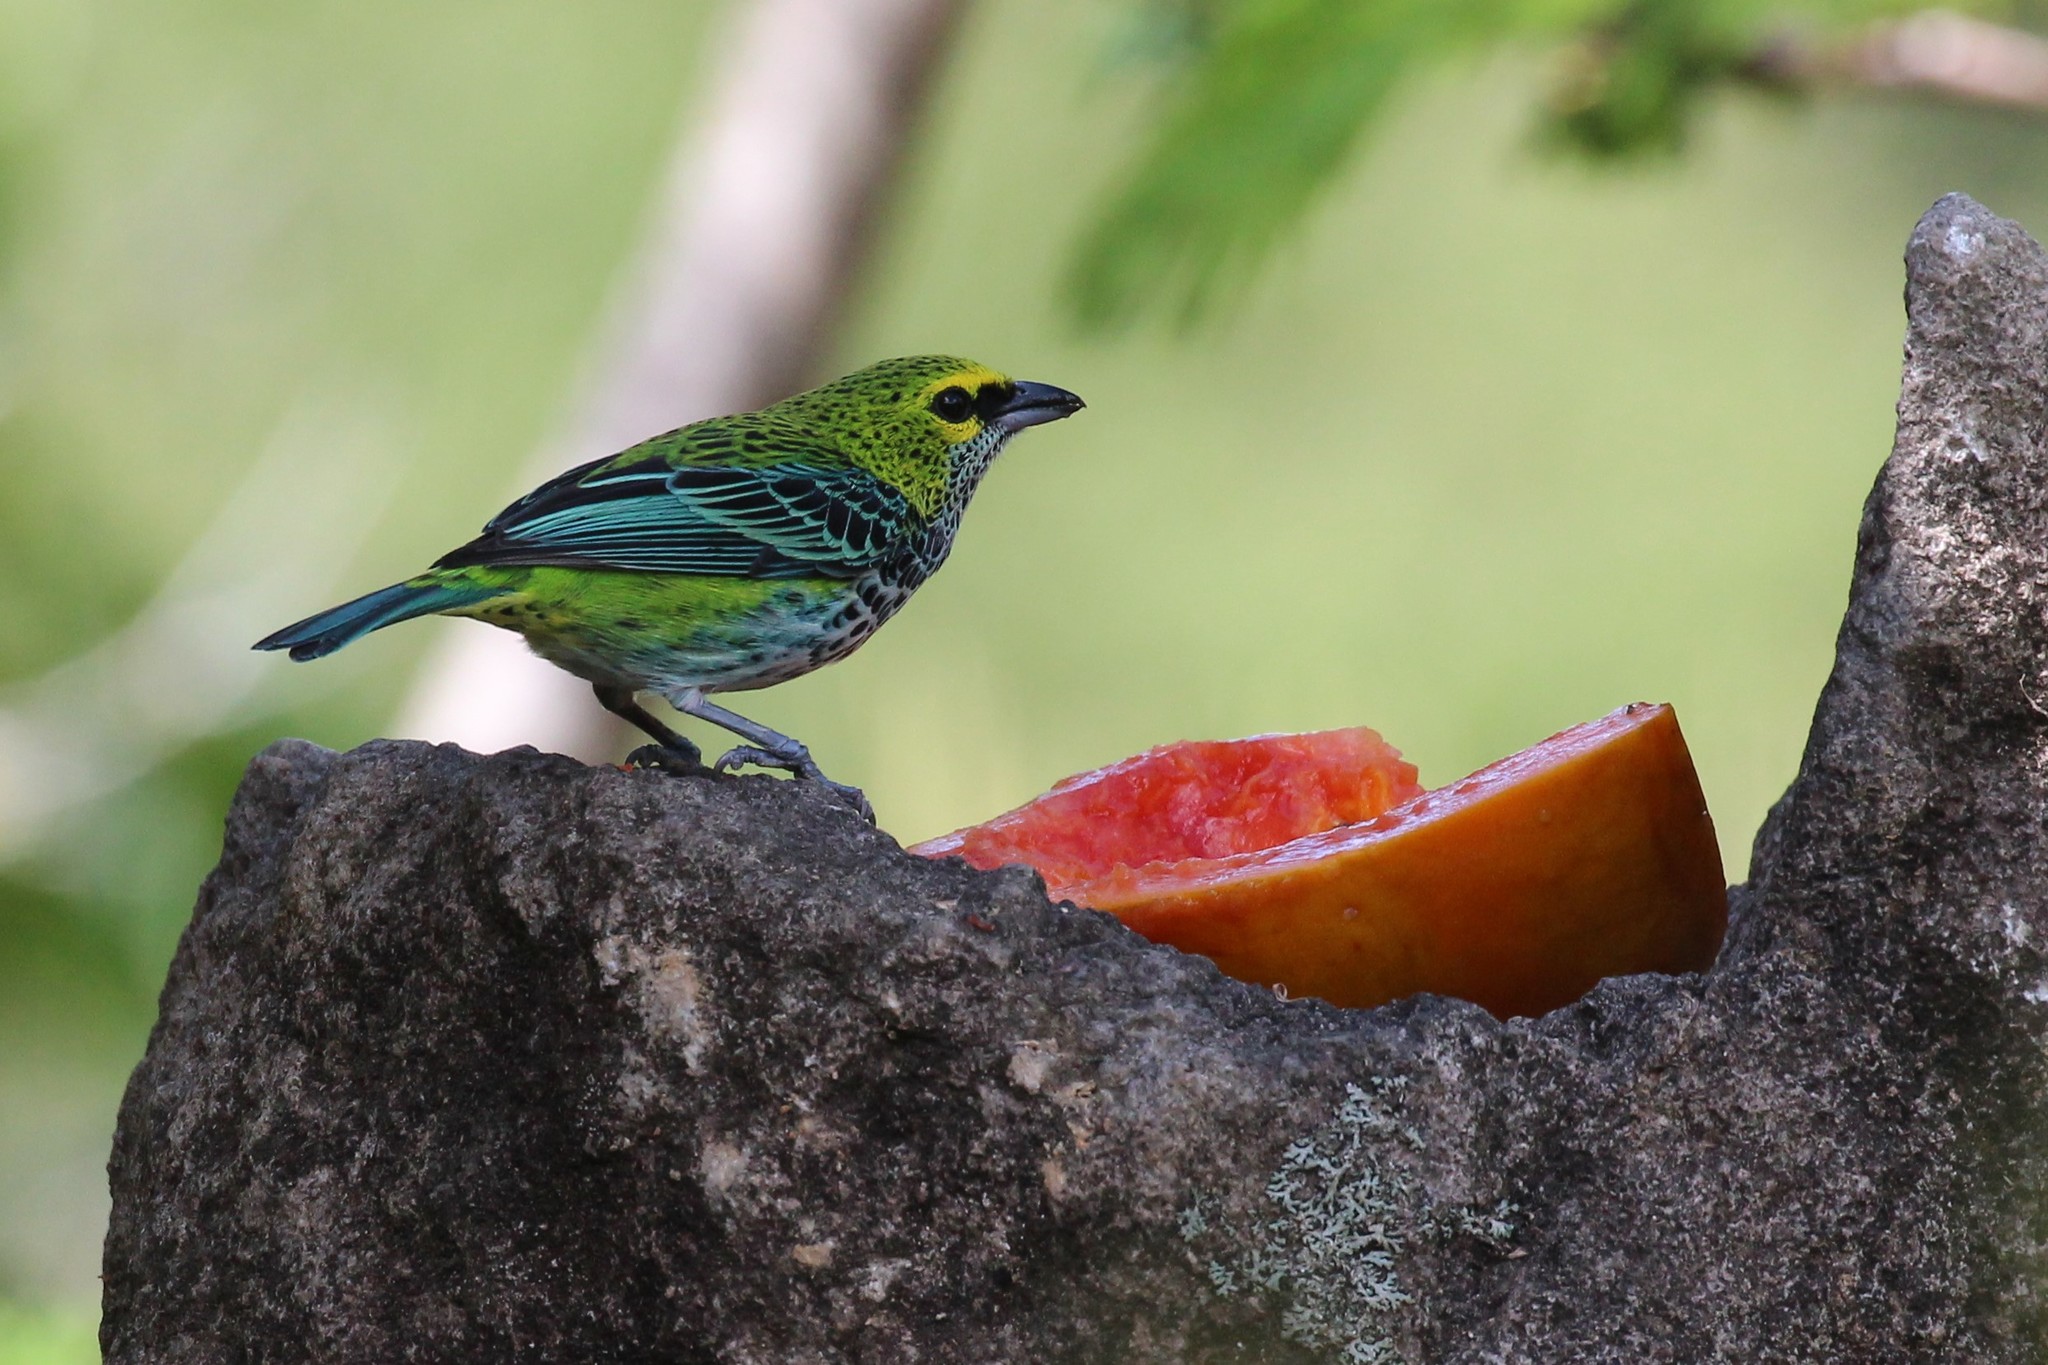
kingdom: Animalia
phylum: Chordata
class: Aves
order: Passeriformes
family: Thraupidae
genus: Ixothraupis
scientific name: Ixothraupis guttata
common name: Speckled tanager
